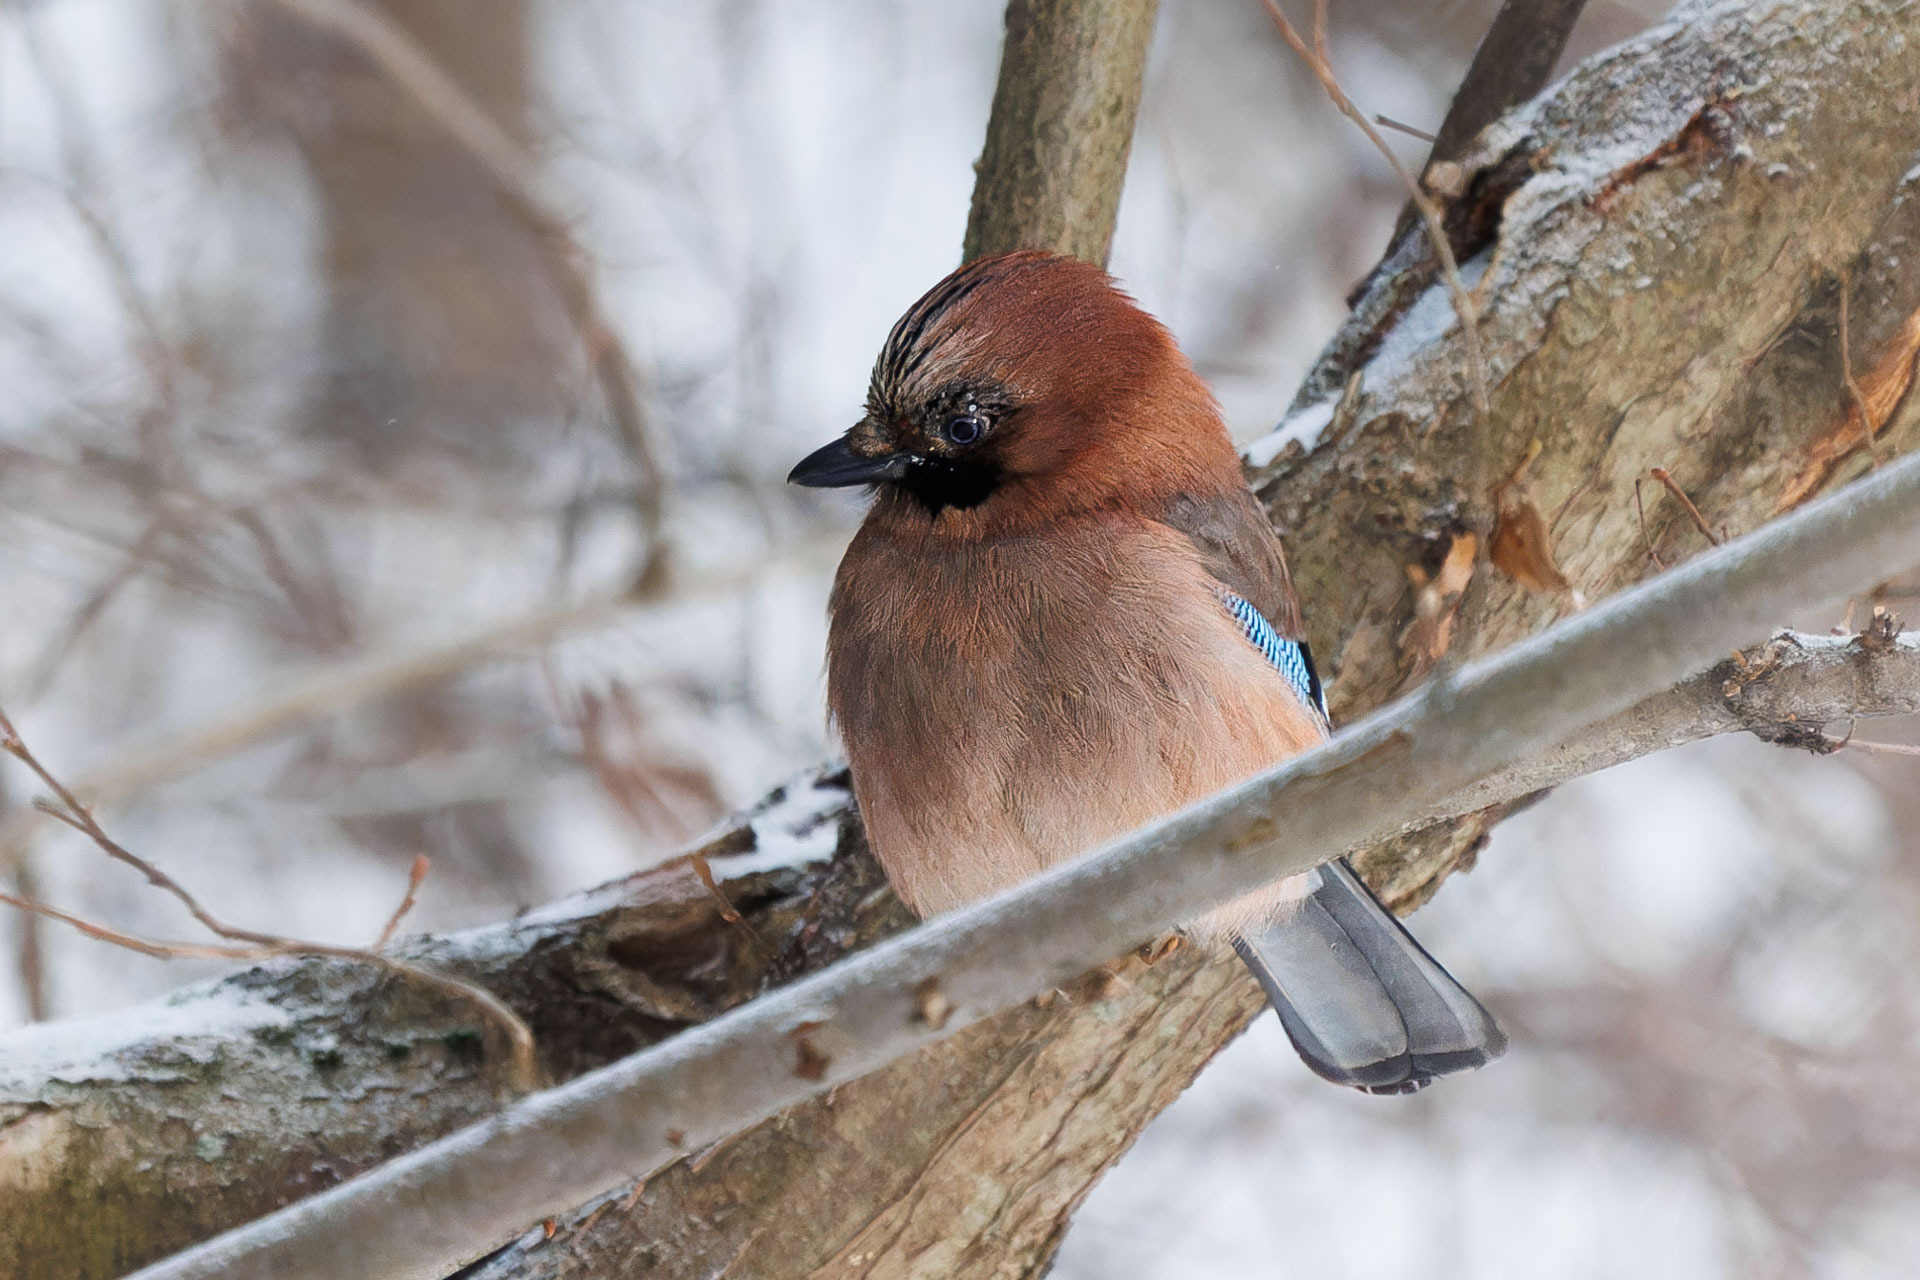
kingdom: Animalia
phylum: Chordata
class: Aves
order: Passeriformes
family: Corvidae
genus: Garrulus
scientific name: Garrulus glandarius
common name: Eurasian jay
